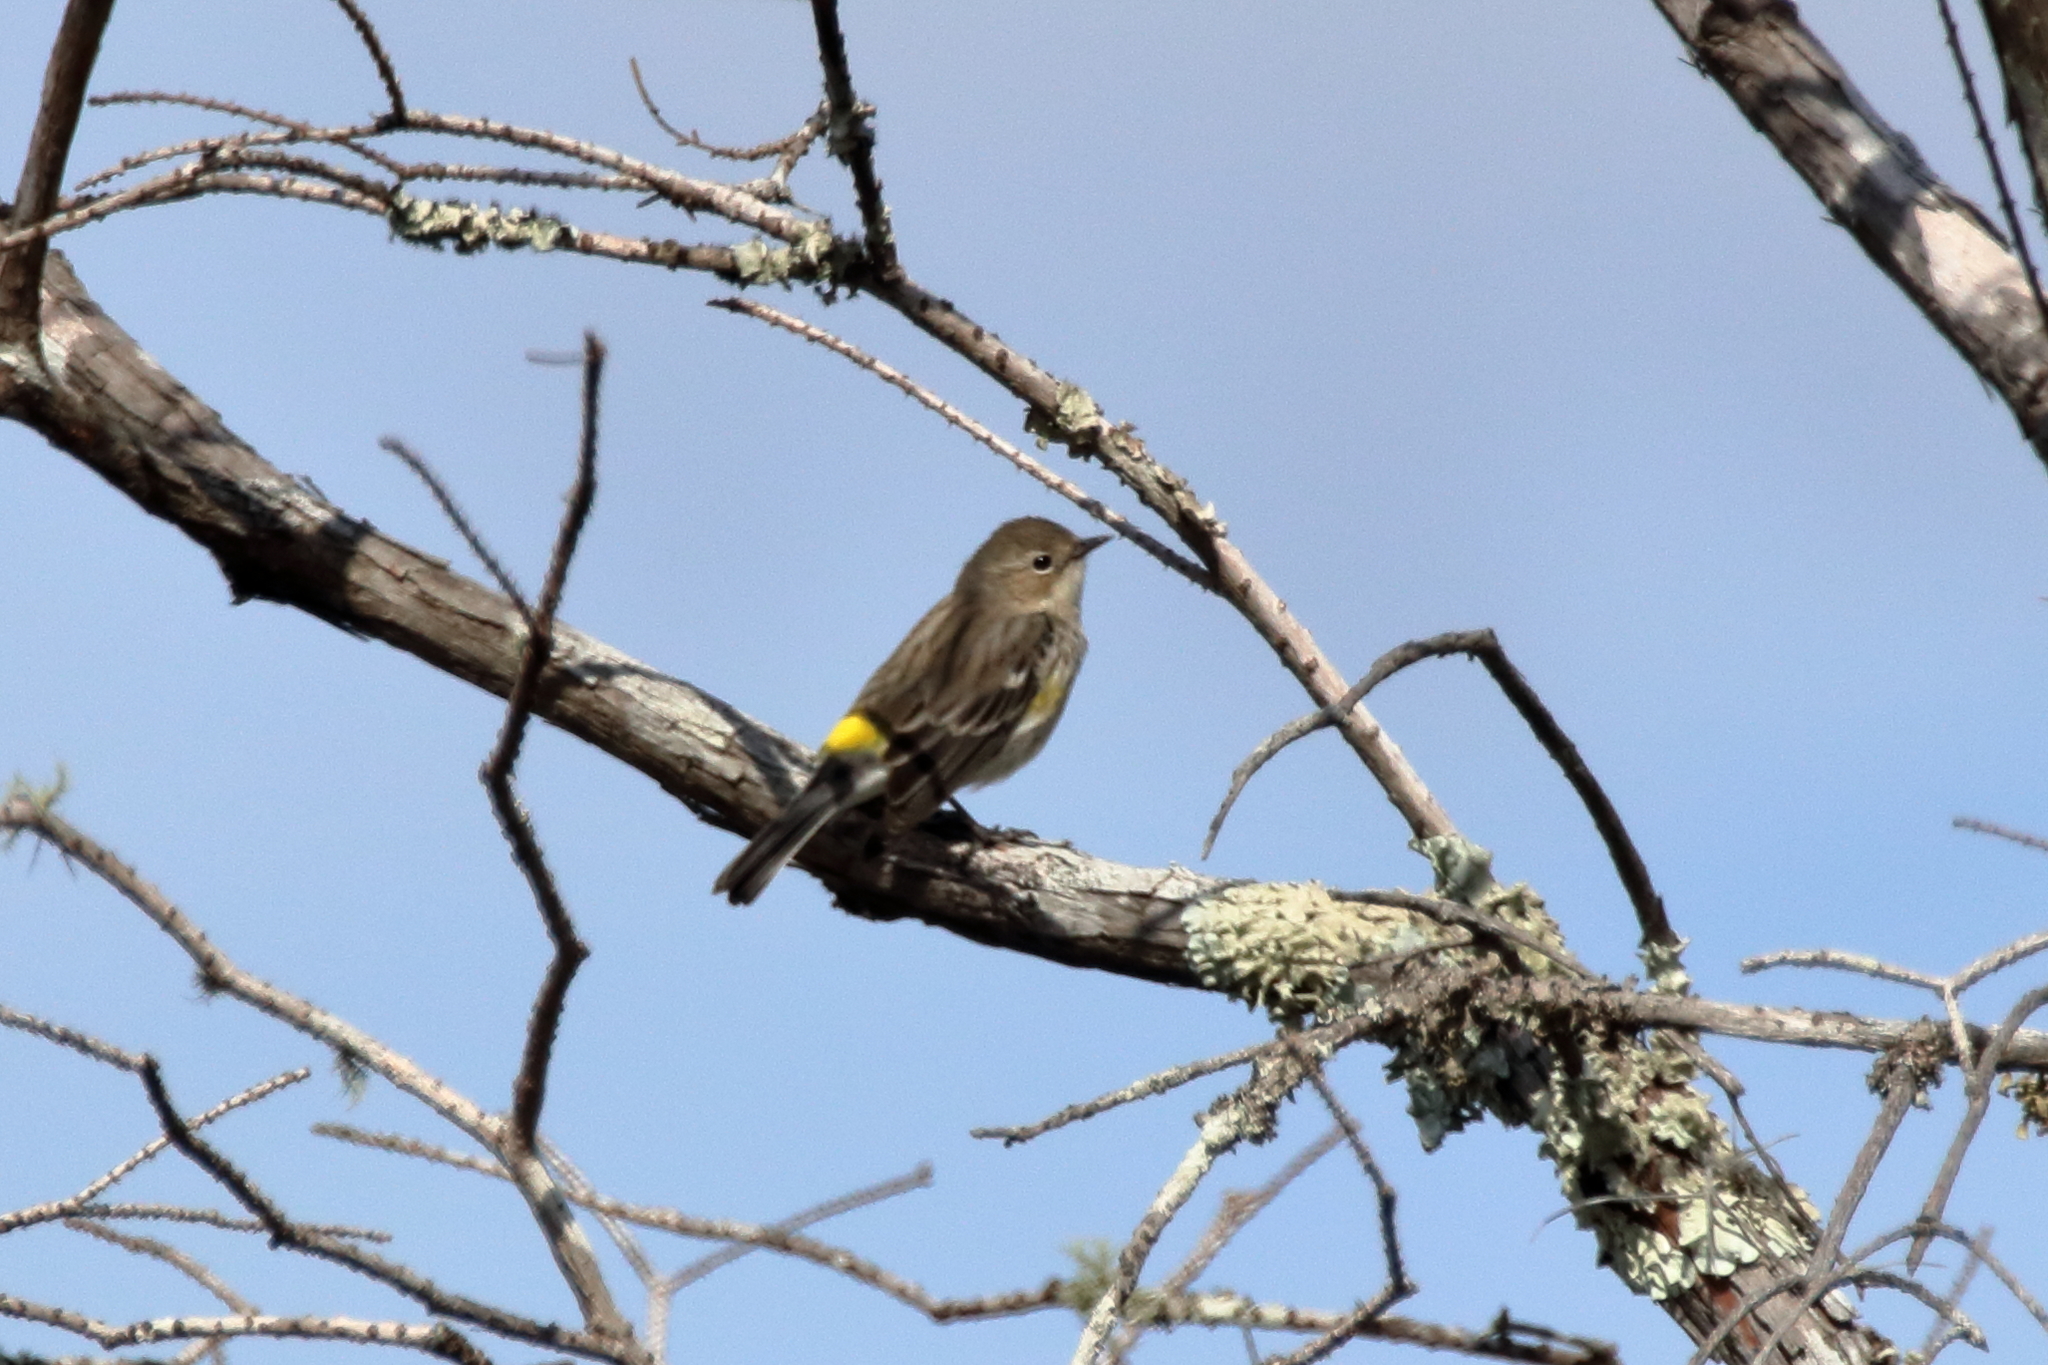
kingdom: Animalia
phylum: Chordata
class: Aves
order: Passeriformes
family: Parulidae
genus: Setophaga
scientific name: Setophaga coronata
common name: Myrtle warbler
